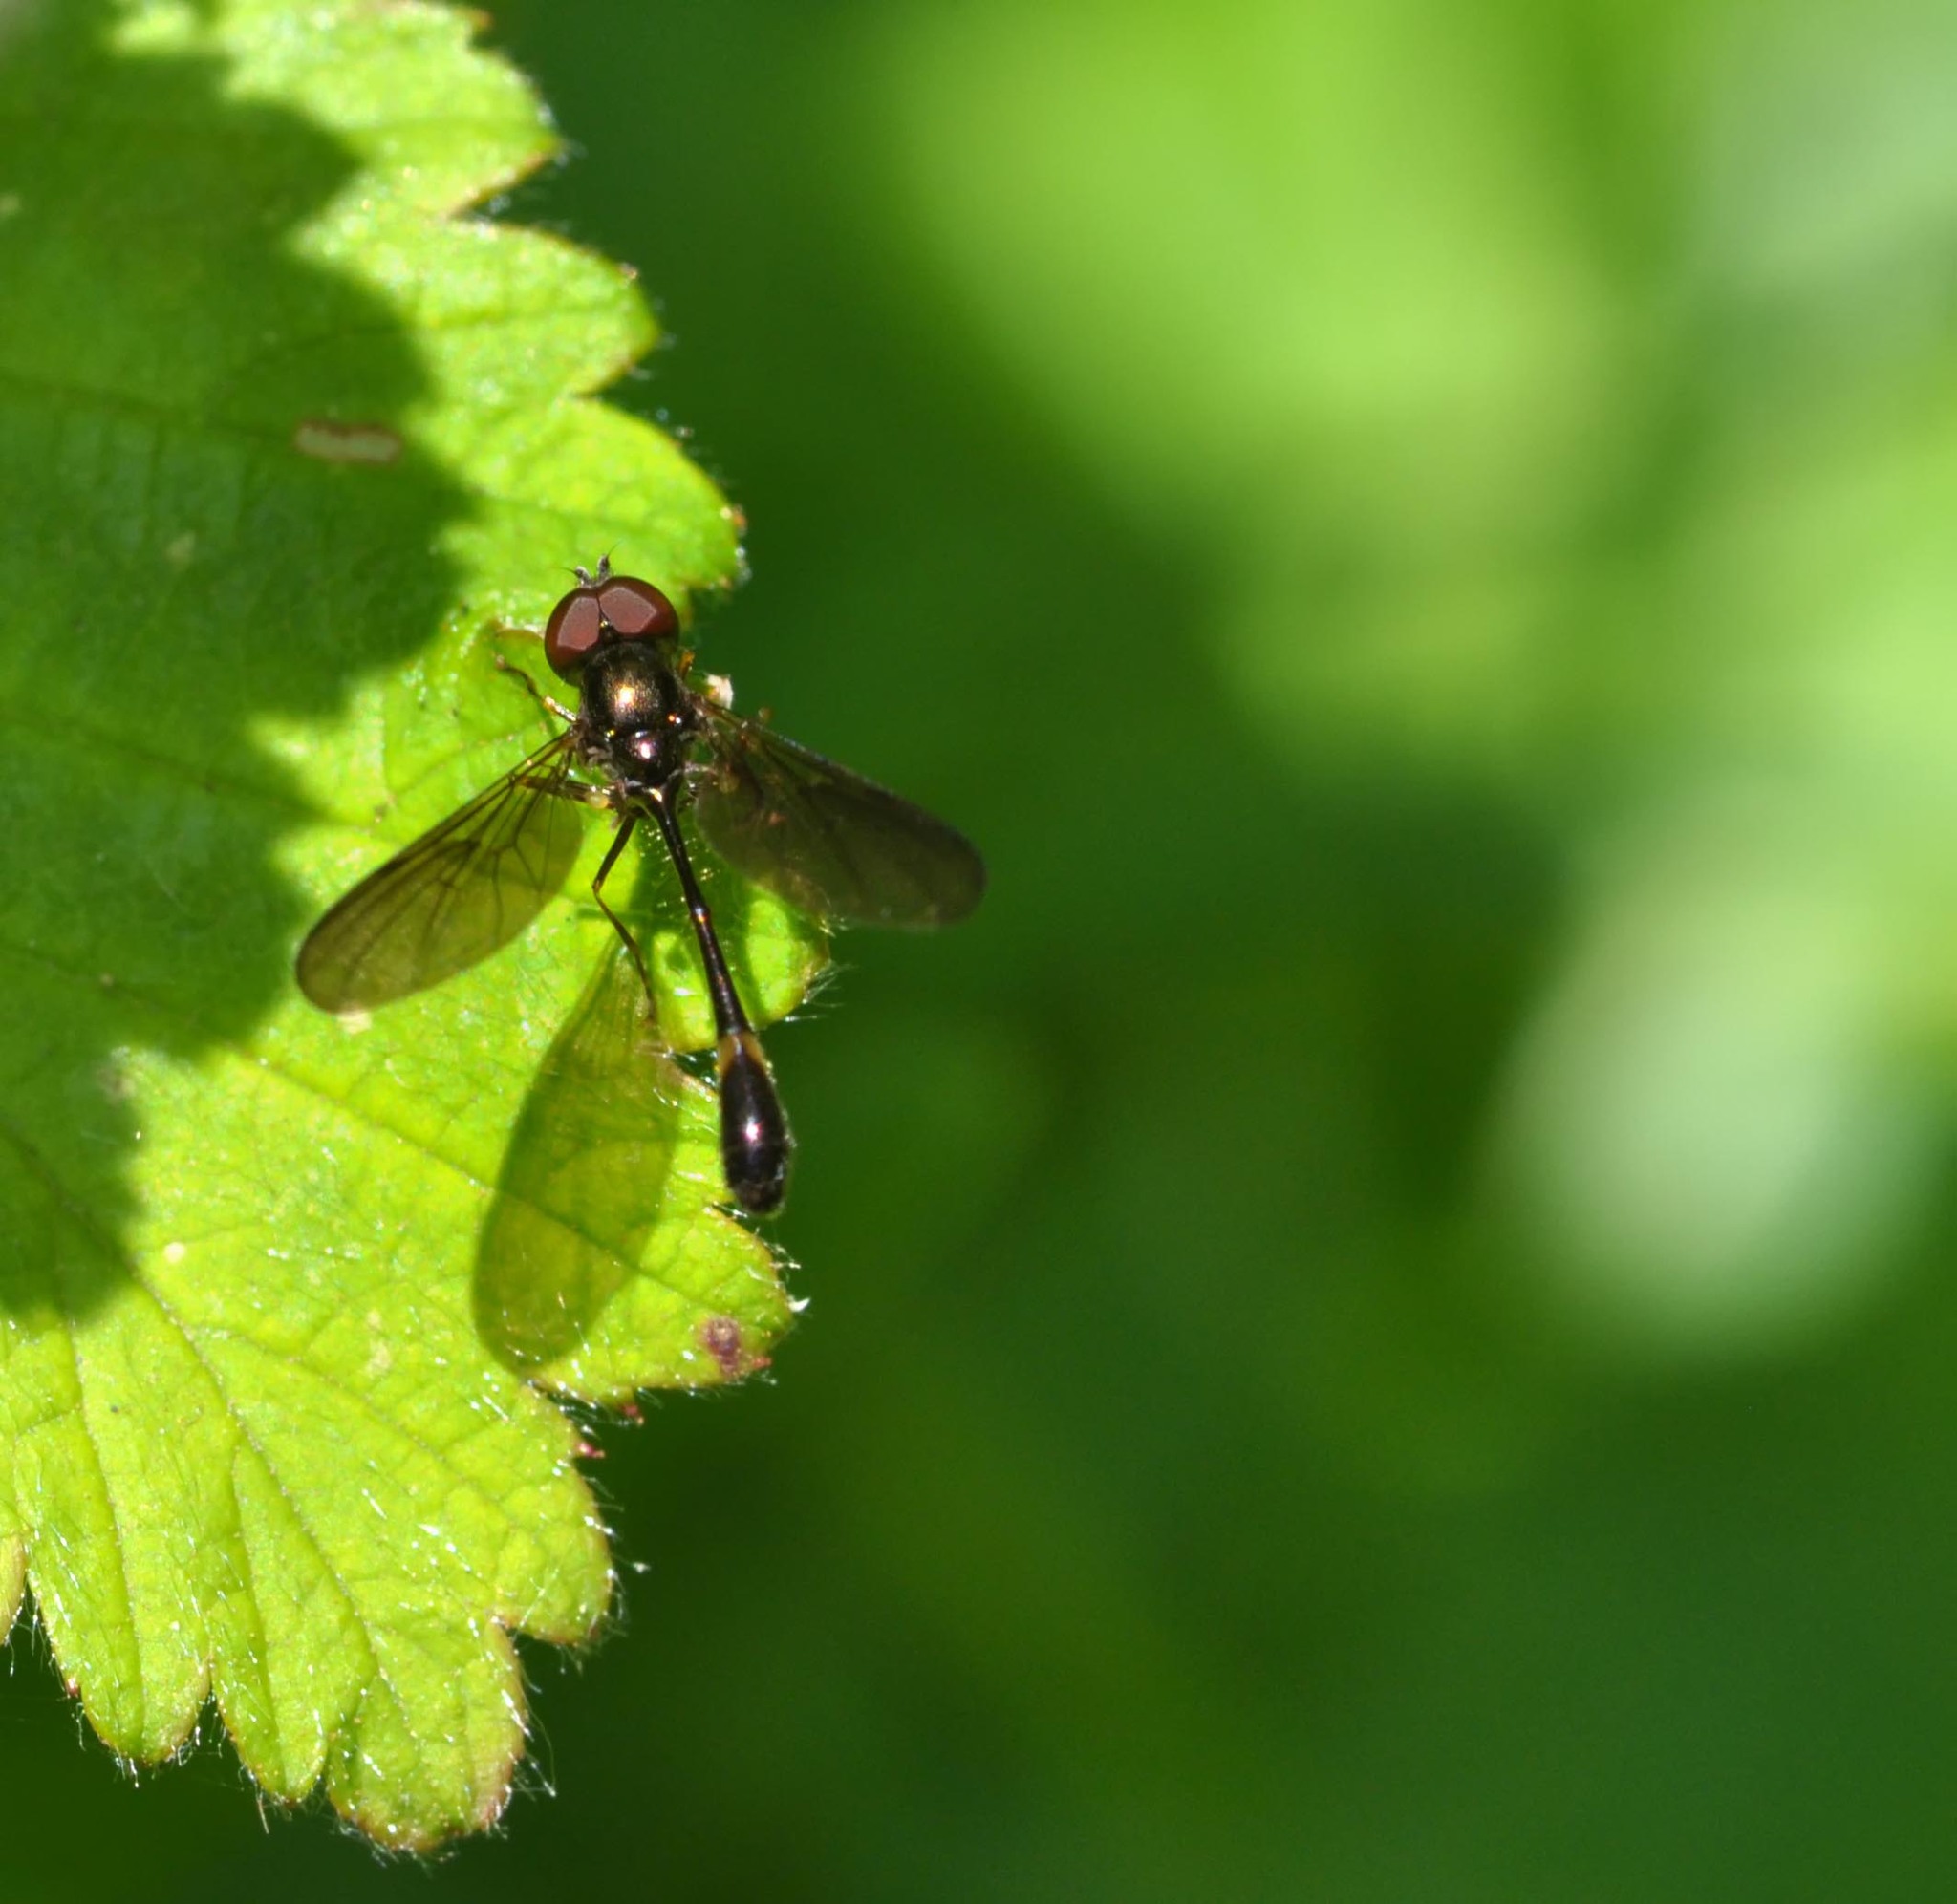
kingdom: Animalia
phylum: Arthropoda
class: Insecta
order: Diptera
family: Syrphidae
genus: Baccha
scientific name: Baccha elongata
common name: Common dainty
